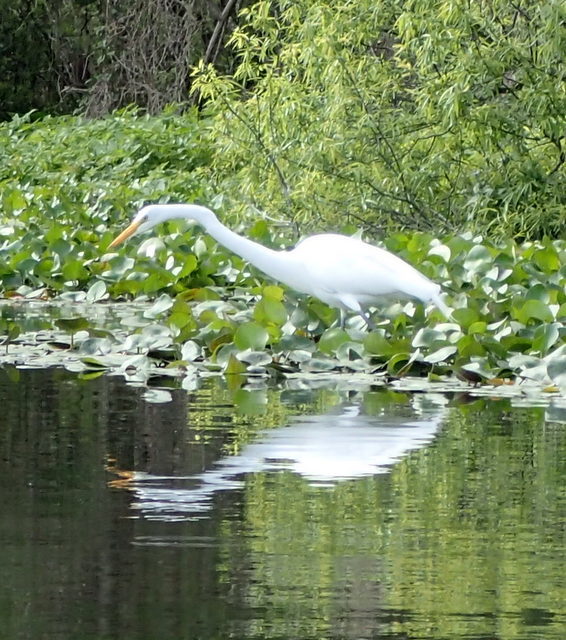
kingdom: Animalia
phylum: Chordata
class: Aves
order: Pelecaniformes
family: Ardeidae
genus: Ardea
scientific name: Ardea alba
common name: Great egret
